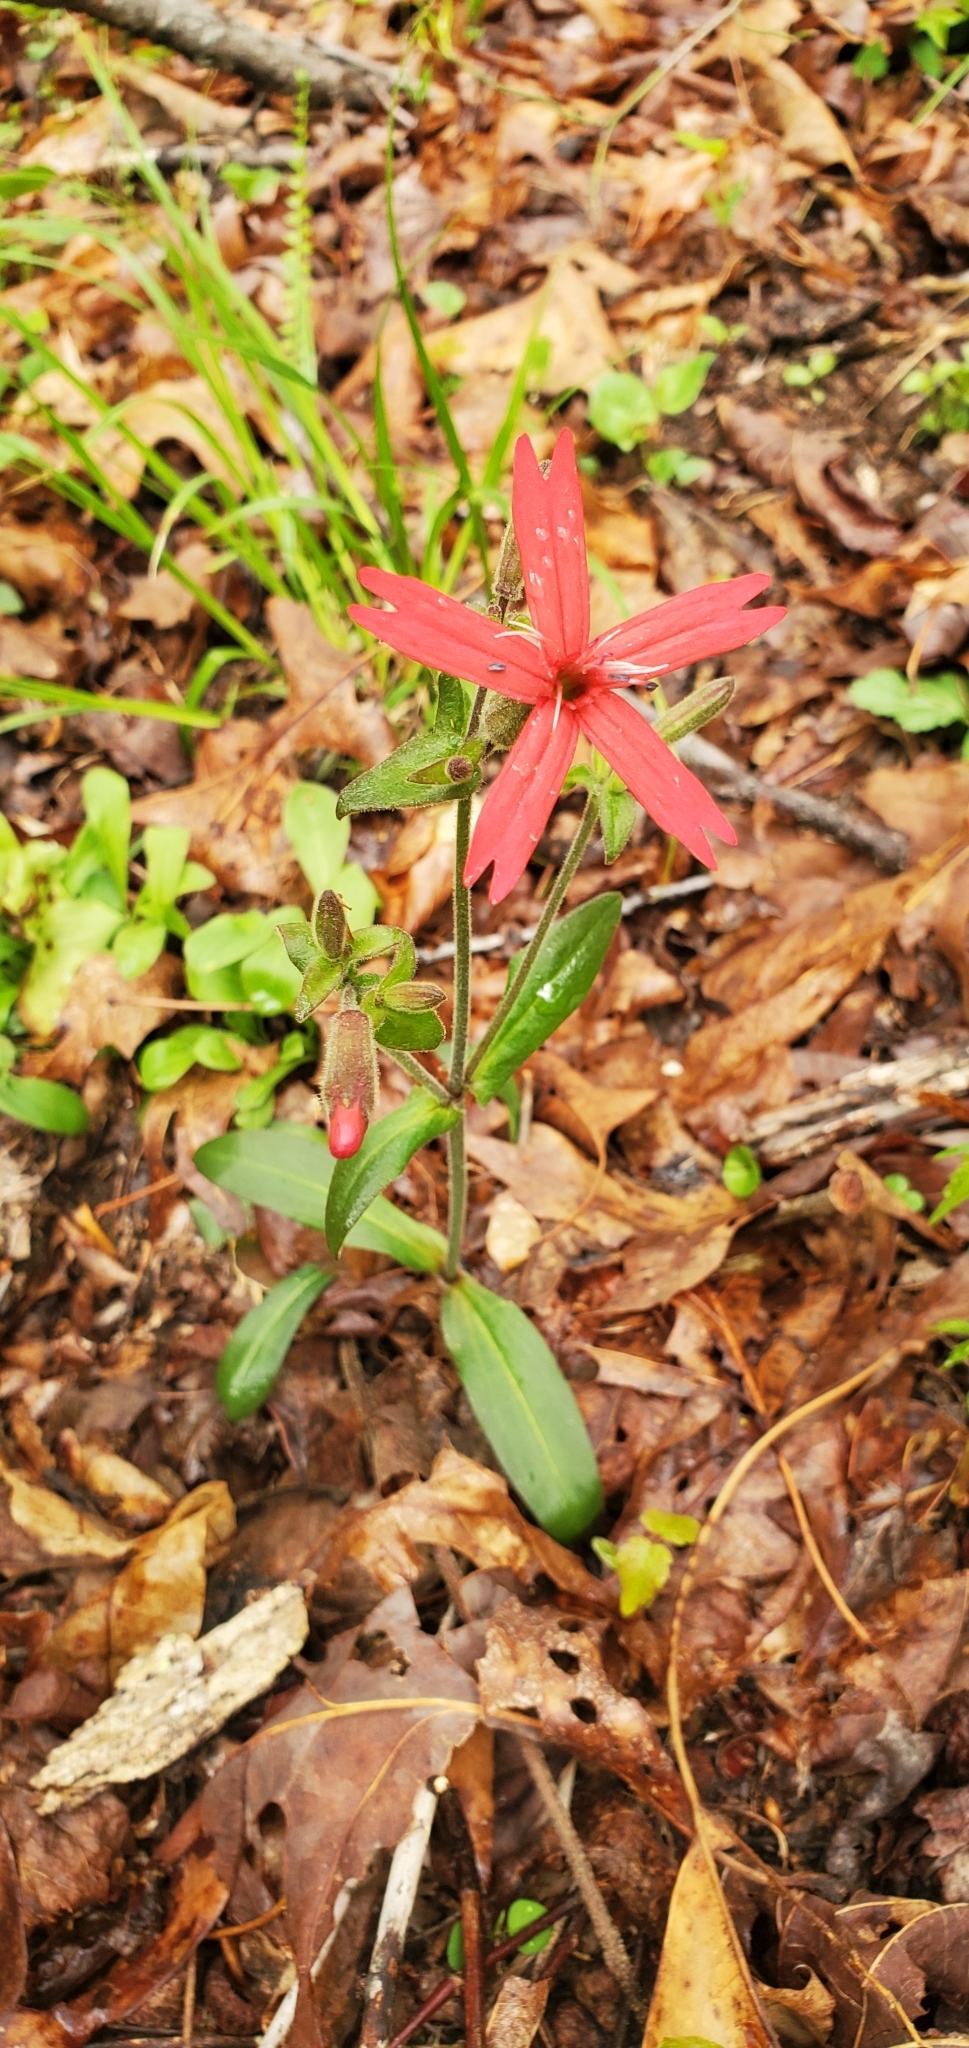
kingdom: Plantae
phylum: Tracheophyta
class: Magnoliopsida
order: Caryophyllales
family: Caryophyllaceae
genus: Silene
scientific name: Silene virginica
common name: Fire-pink
